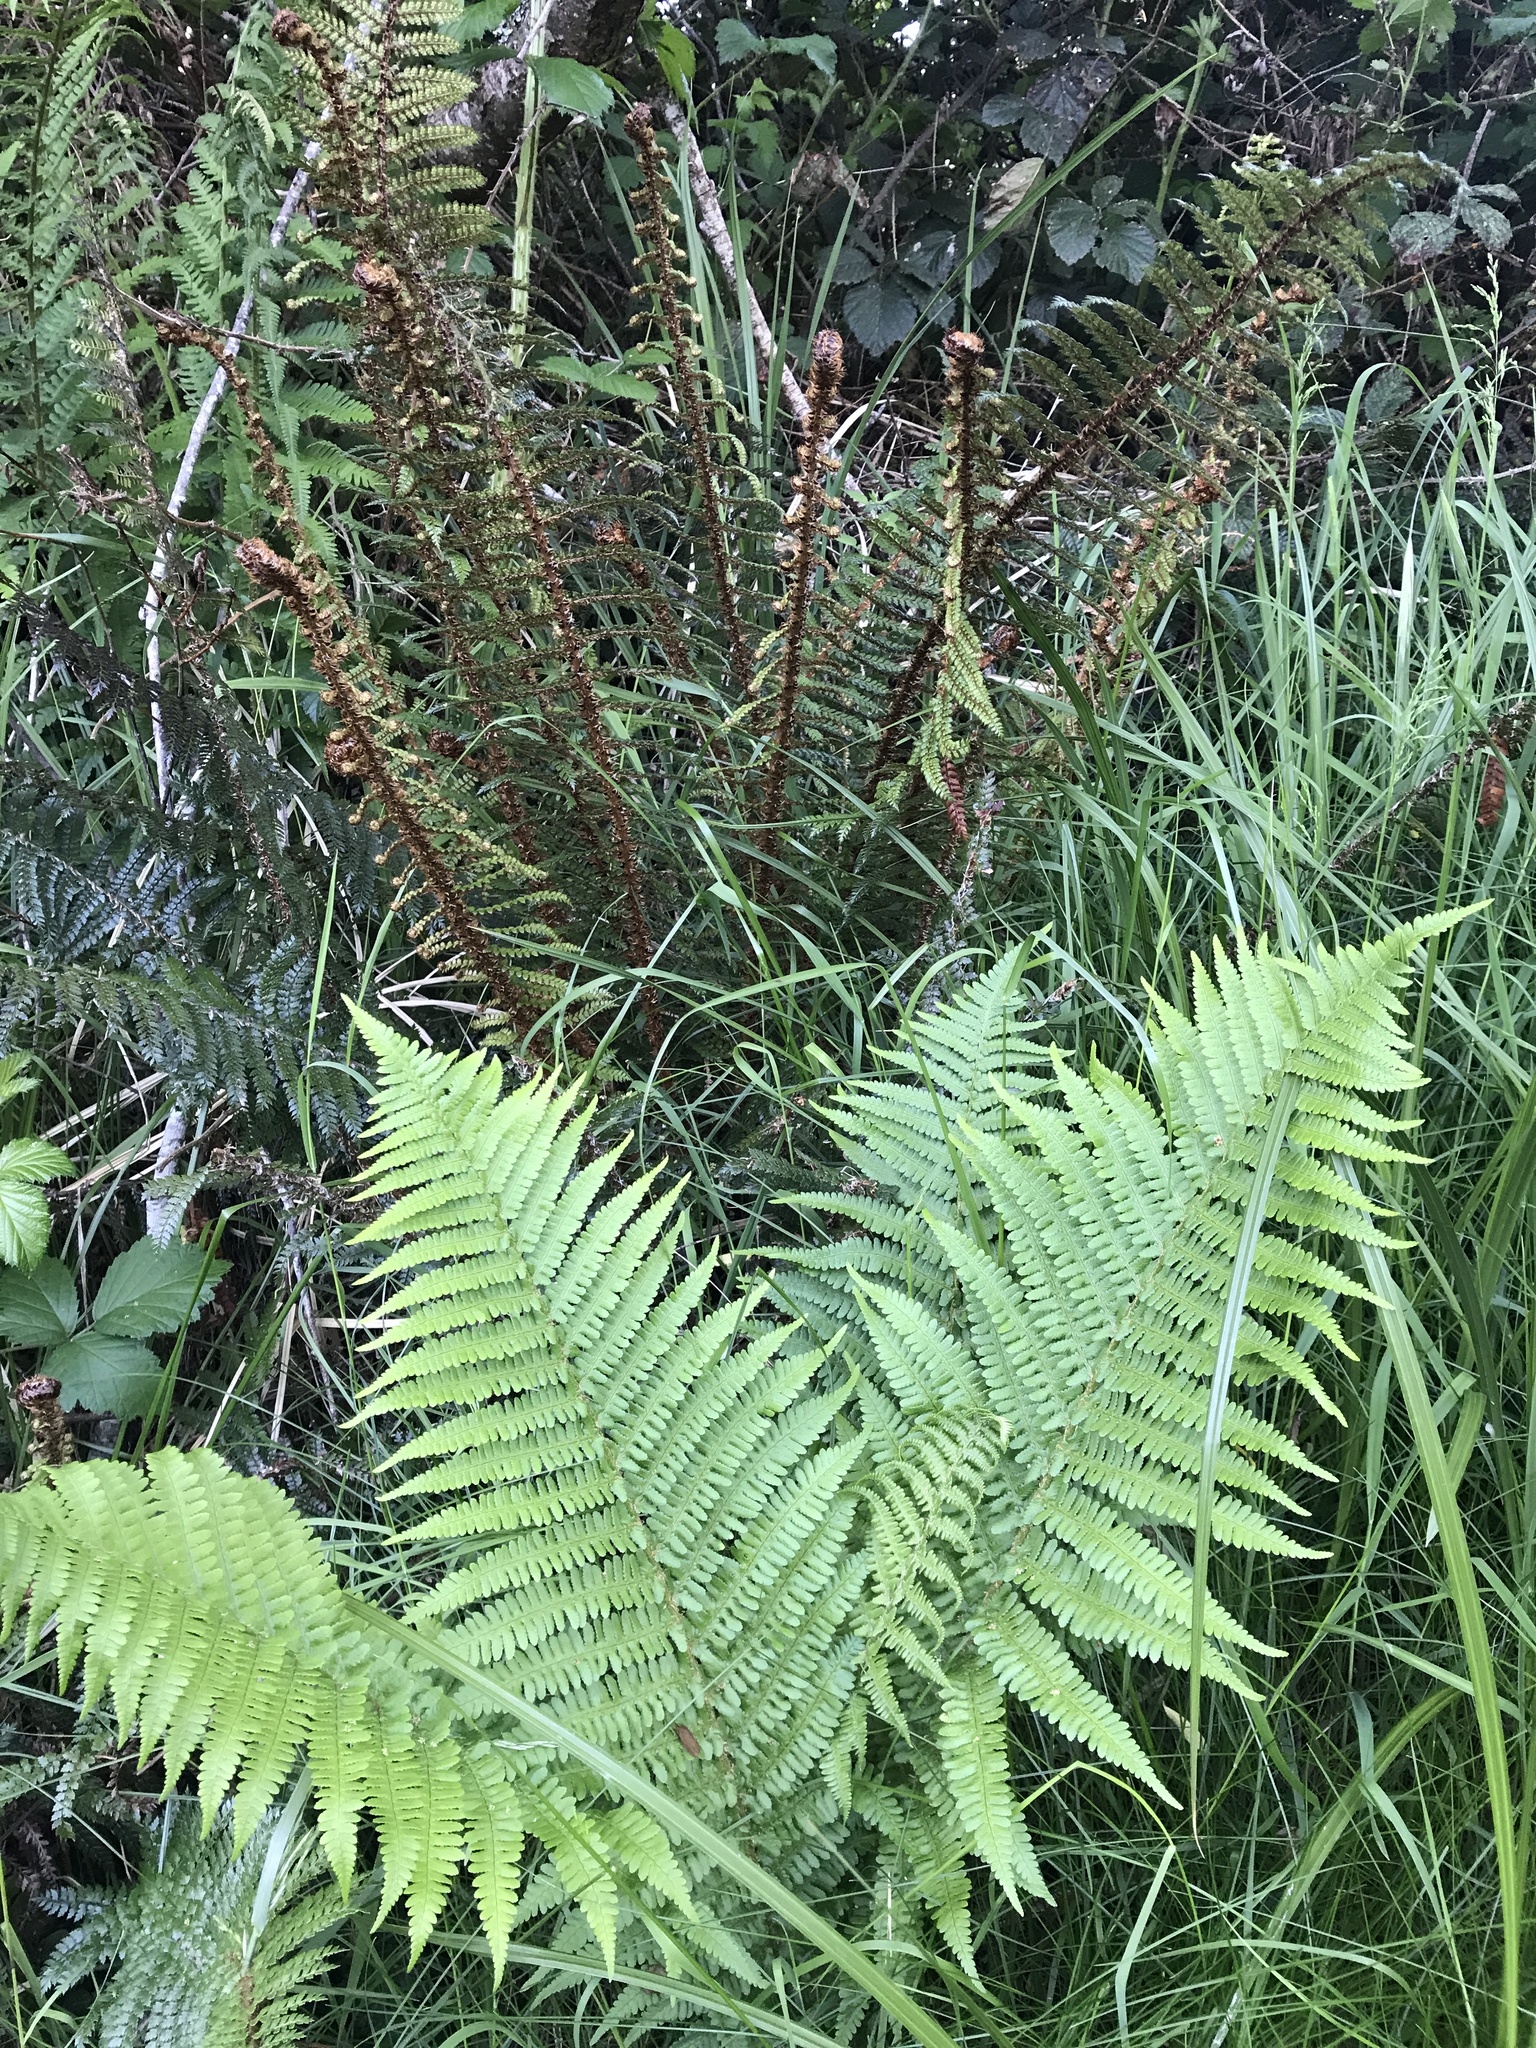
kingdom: Plantae
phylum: Tracheophyta
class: Polypodiopsida
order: Polypodiales
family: Dryopteridaceae
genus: Dryopteris
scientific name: Dryopteris filix-mas
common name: Male fern
